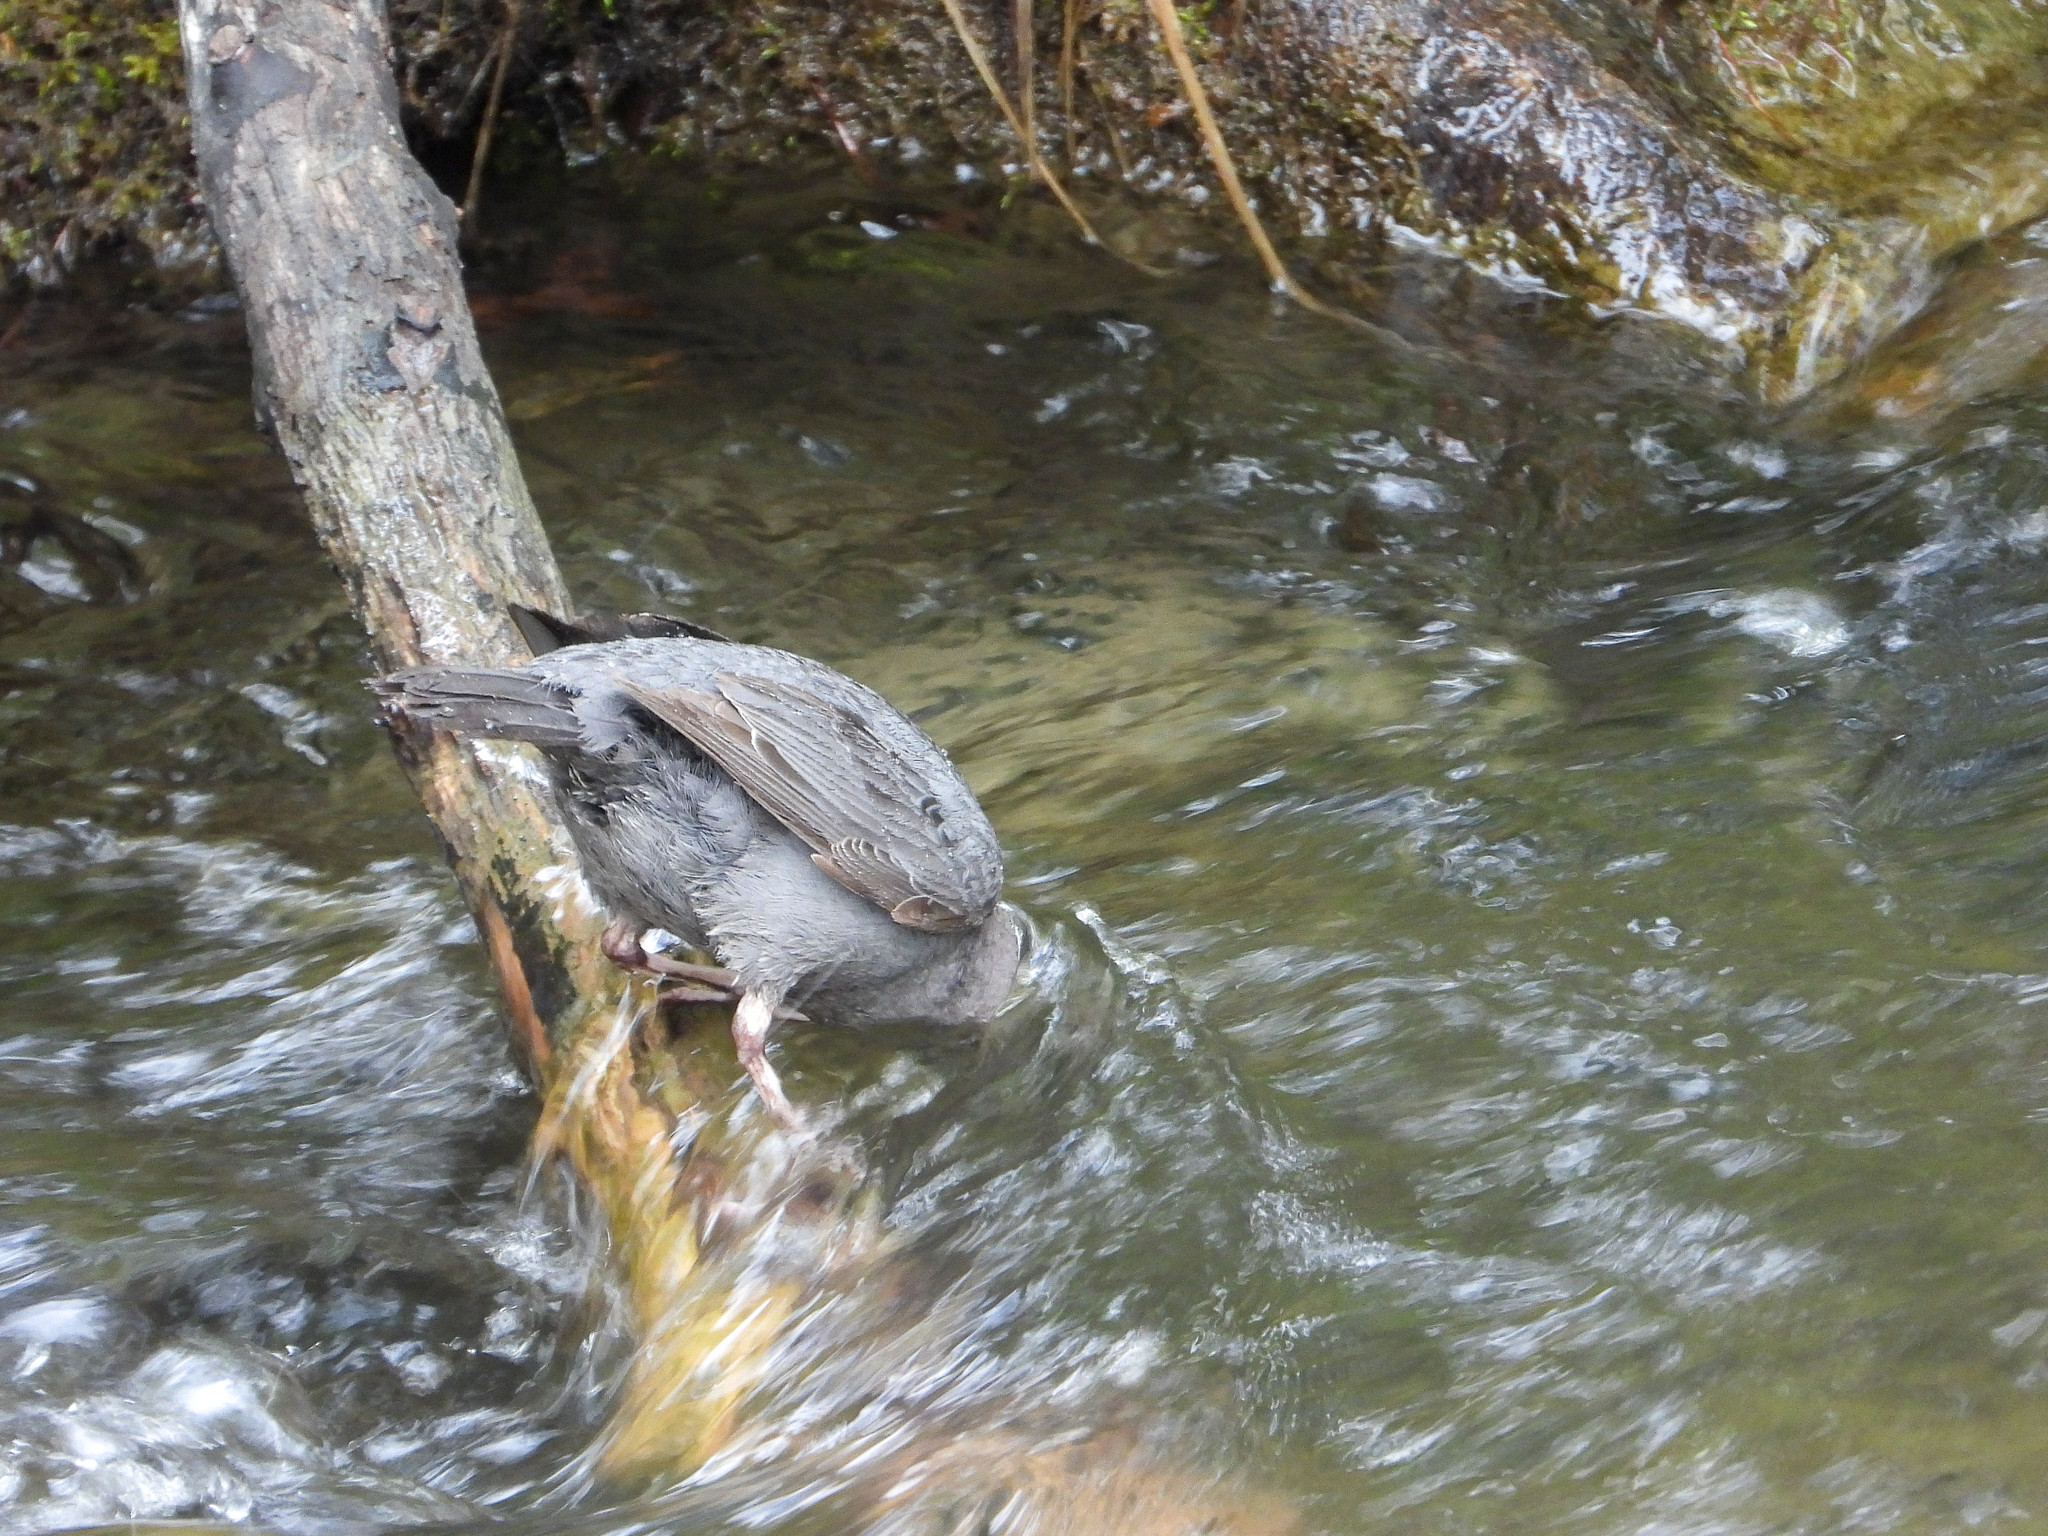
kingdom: Animalia
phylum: Chordata
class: Aves
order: Passeriformes
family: Cinclidae
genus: Cinclus
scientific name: Cinclus mexicanus
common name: American dipper
